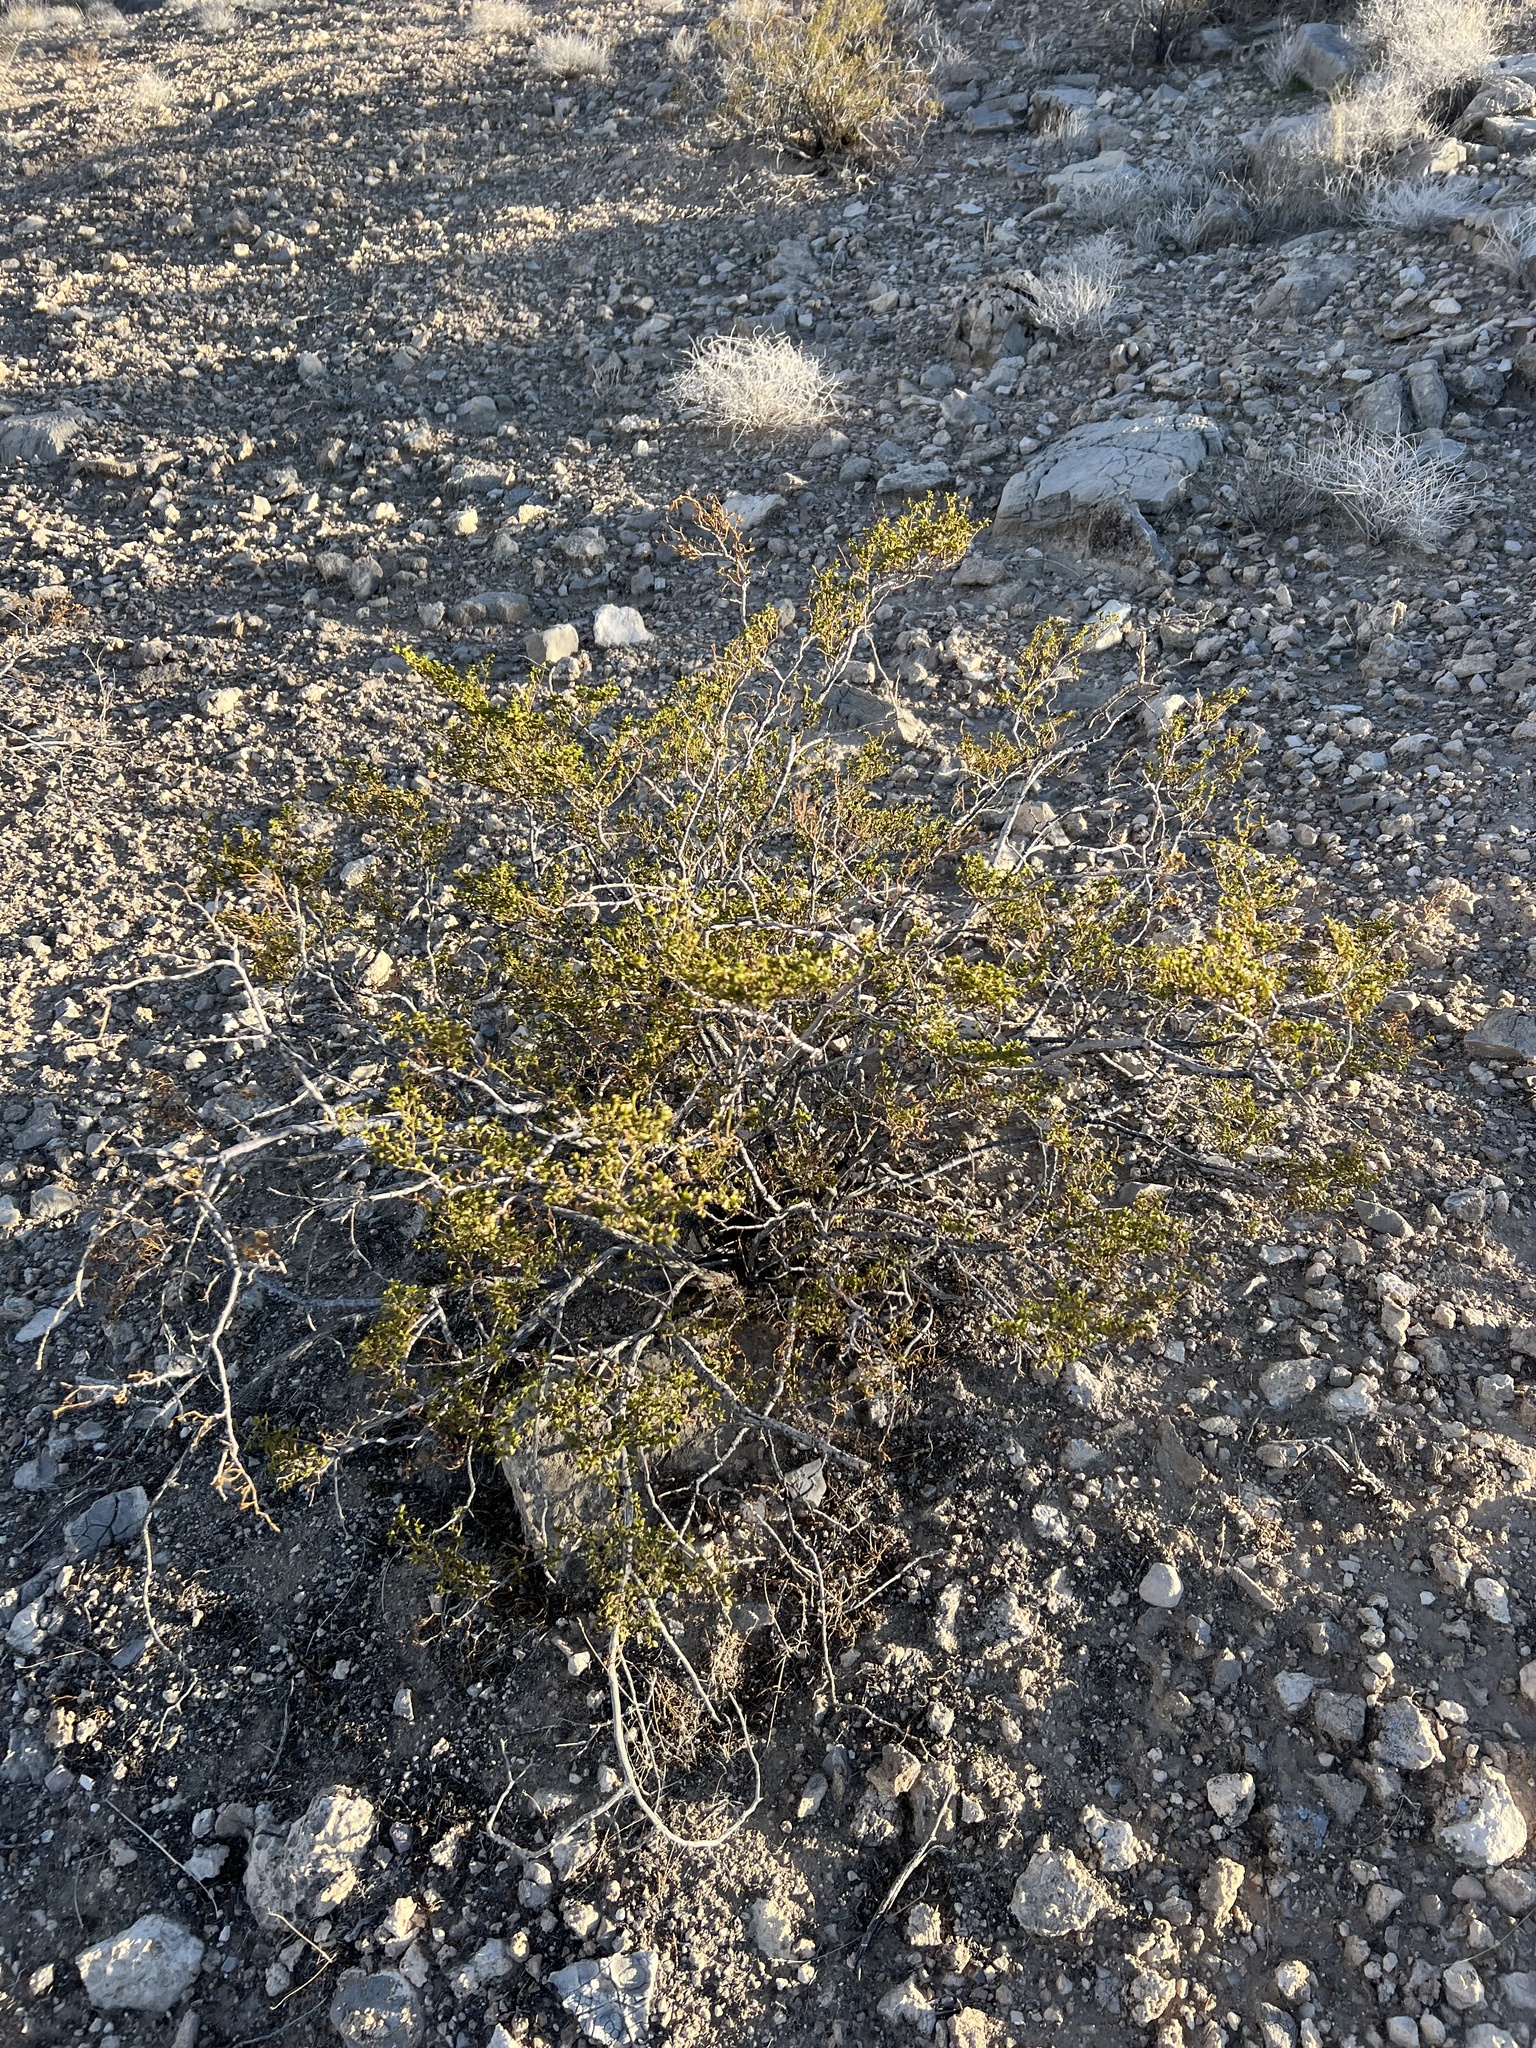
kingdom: Plantae
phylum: Tracheophyta
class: Magnoliopsida
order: Zygophyllales
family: Zygophyllaceae
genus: Larrea
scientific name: Larrea tridentata
